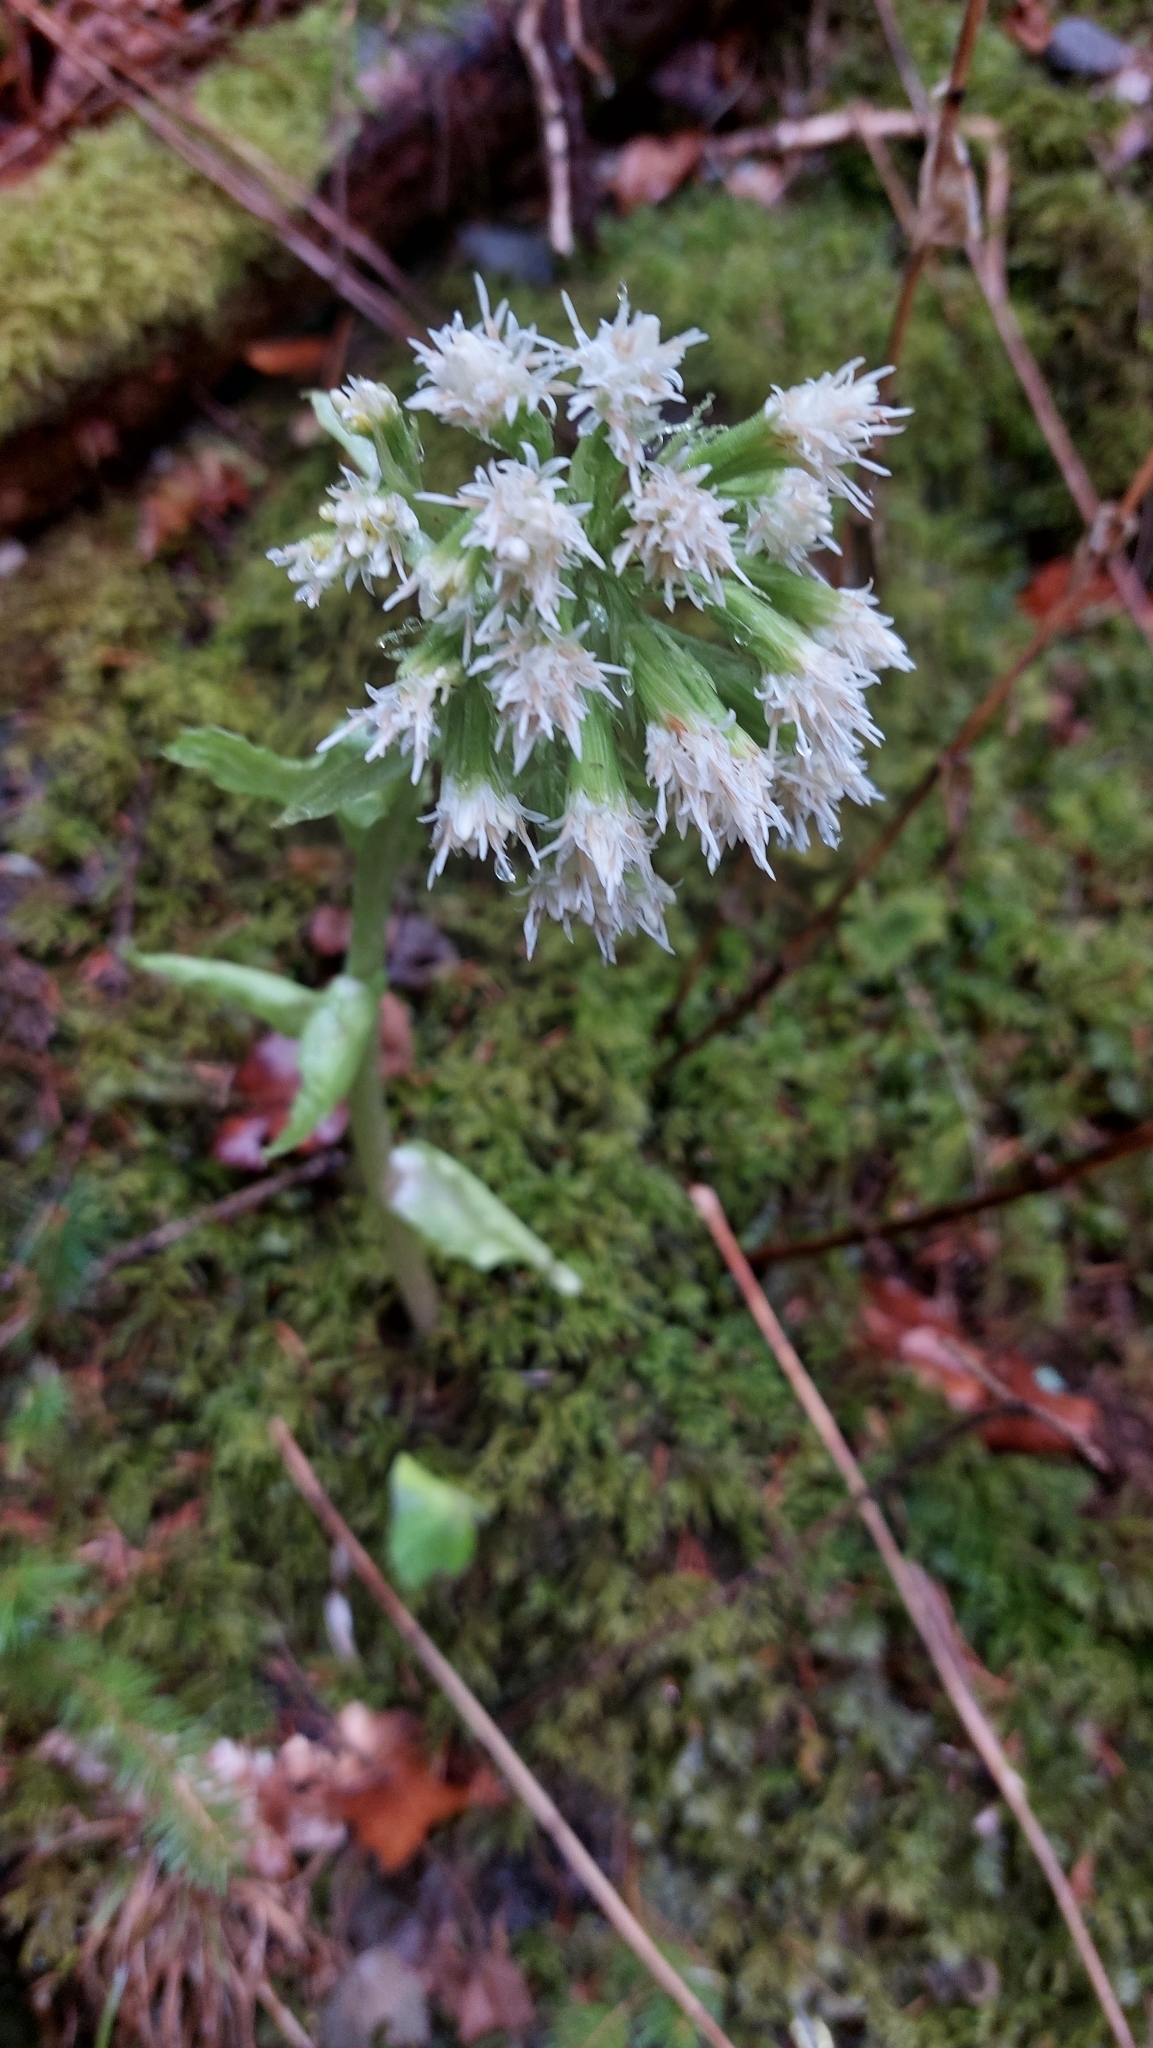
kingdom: Plantae
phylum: Tracheophyta
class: Magnoliopsida
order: Asterales
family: Asteraceae
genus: Petasites
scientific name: Petasites albus
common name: White butterbur
